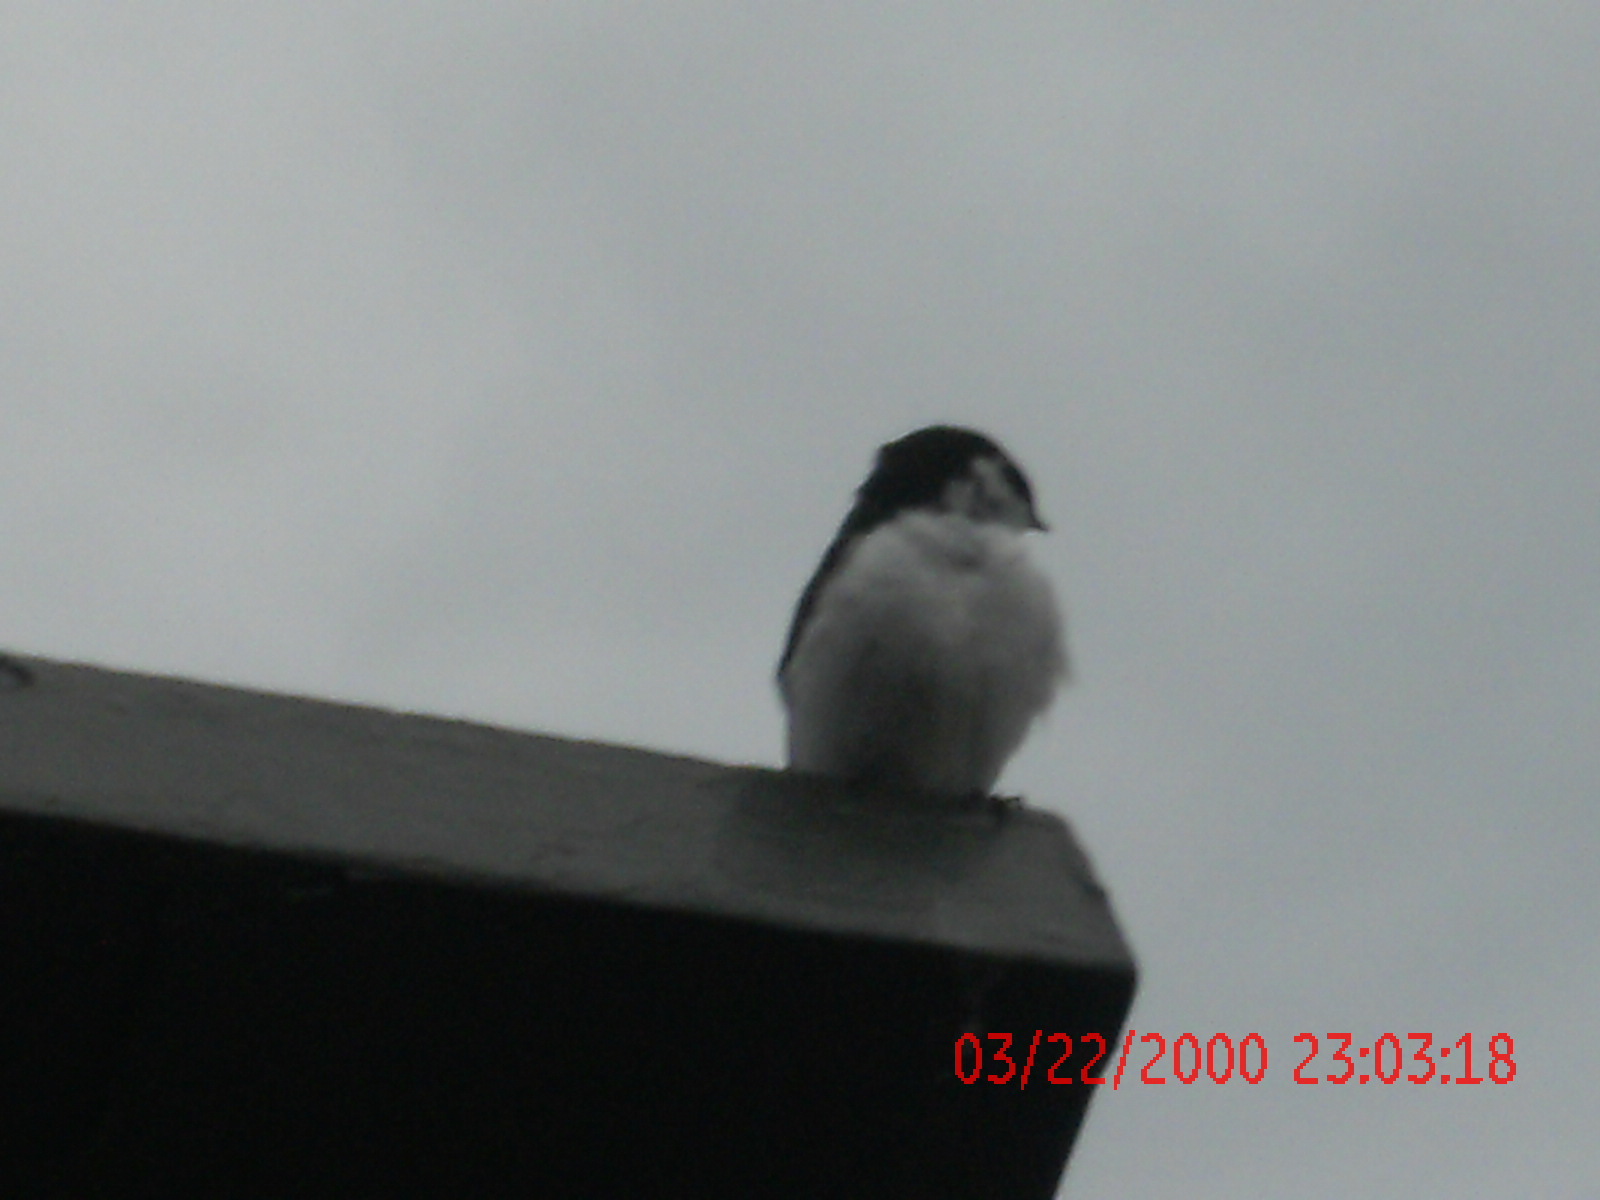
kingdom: Animalia
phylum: Chordata
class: Aves
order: Passeriformes
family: Hirundinidae
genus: Tachycineta
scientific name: Tachycineta thalassina
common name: Violet-green swallow
